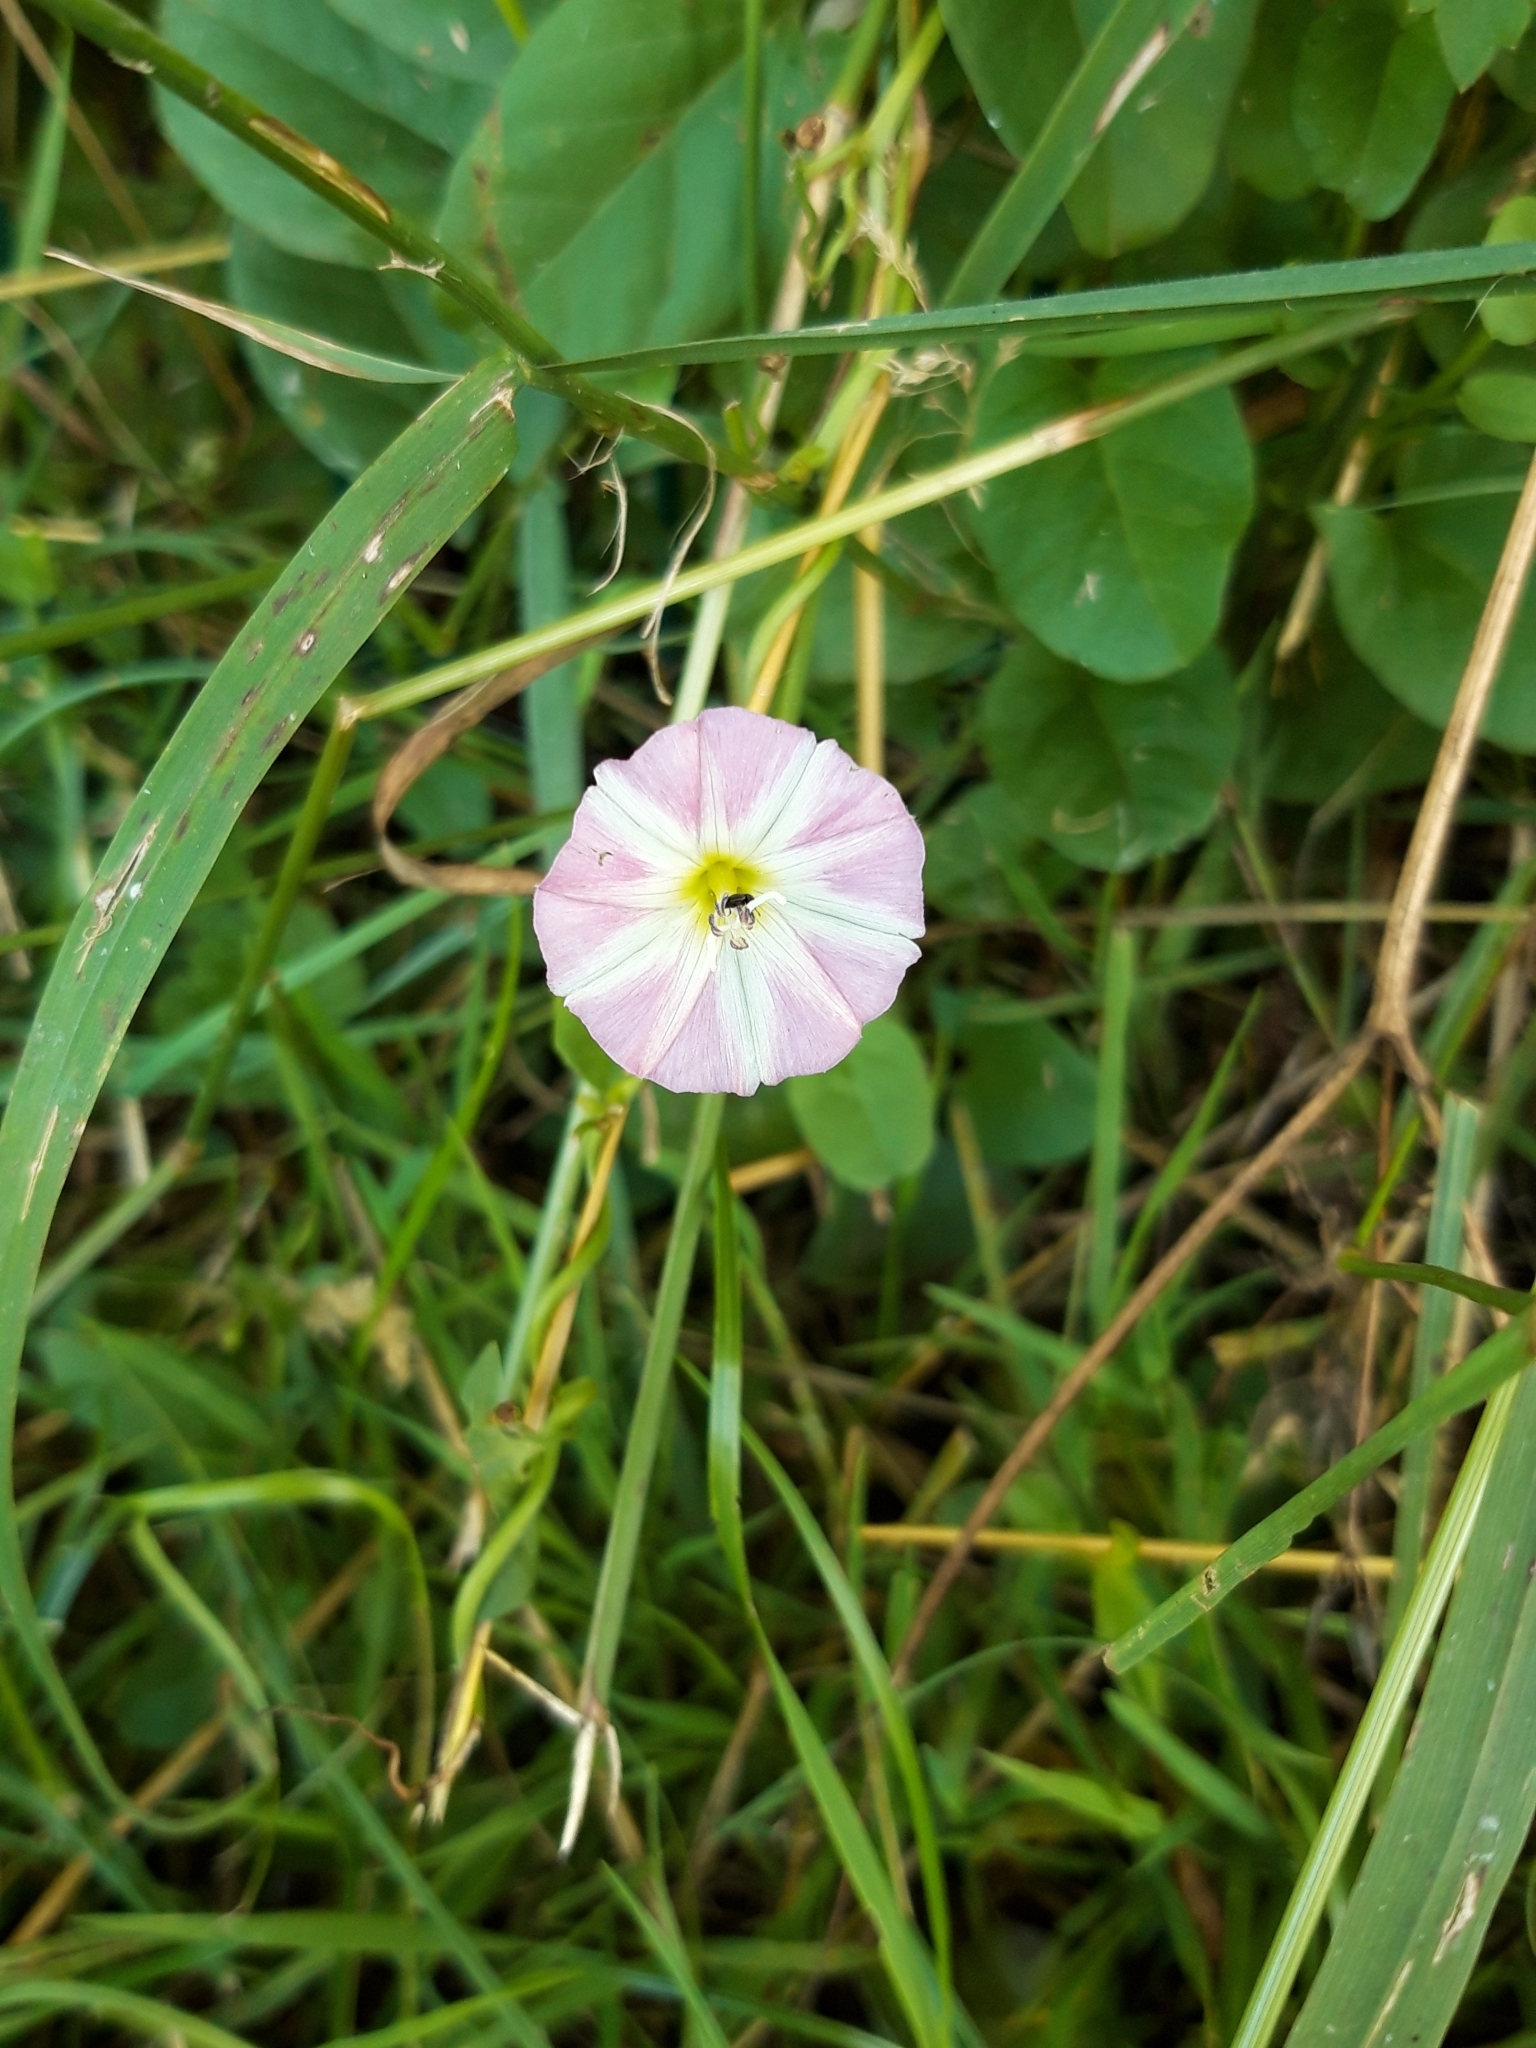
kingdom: Plantae
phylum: Tracheophyta
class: Magnoliopsida
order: Solanales
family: Convolvulaceae
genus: Convolvulus
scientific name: Convolvulus arvensis
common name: Field bindweed
